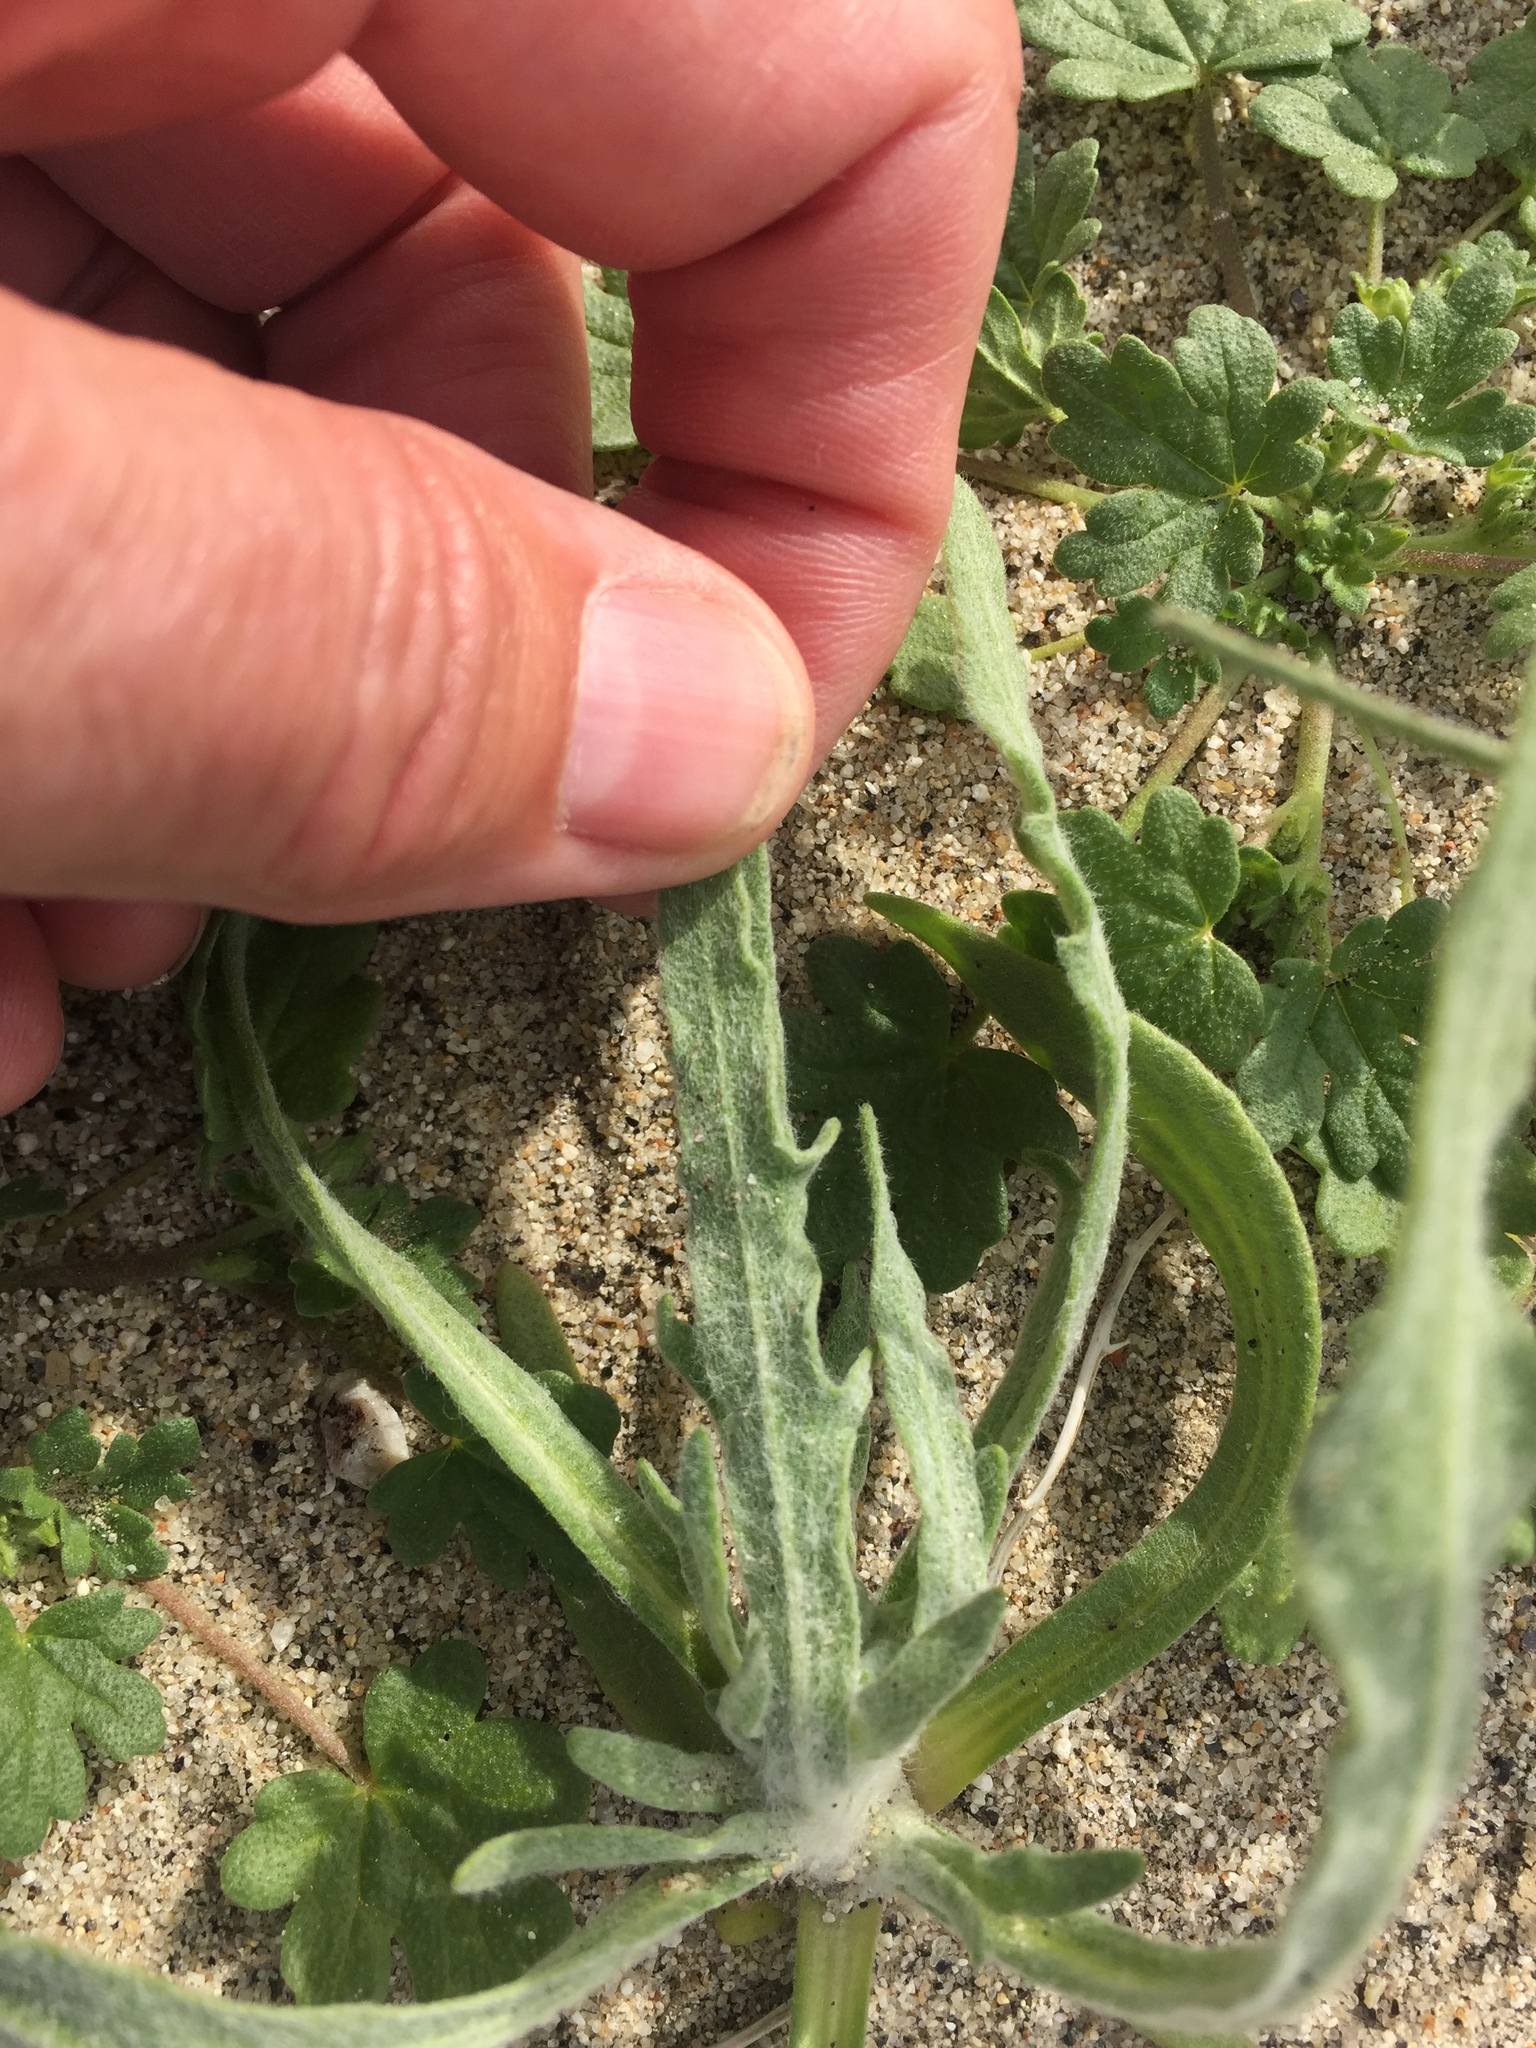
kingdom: Plantae
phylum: Tracheophyta
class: Magnoliopsida
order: Asterales
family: Asteraceae
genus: Baileya
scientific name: Baileya pauciradiata
